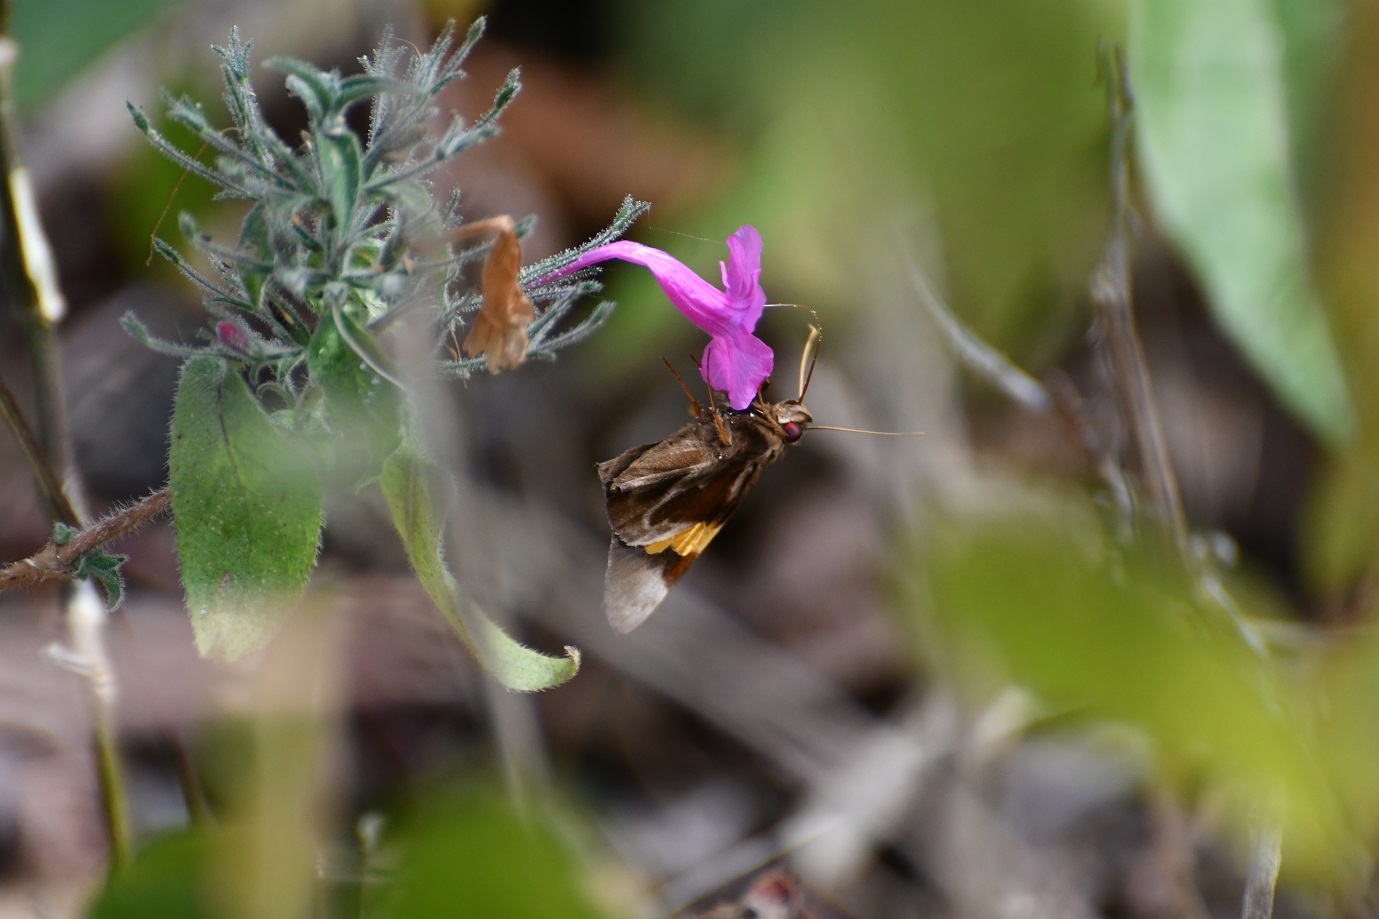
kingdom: Animalia
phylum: Arthropoda
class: Insecta
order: Lepidoptera
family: Hesperiidae
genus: Perichares
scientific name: Perichares
